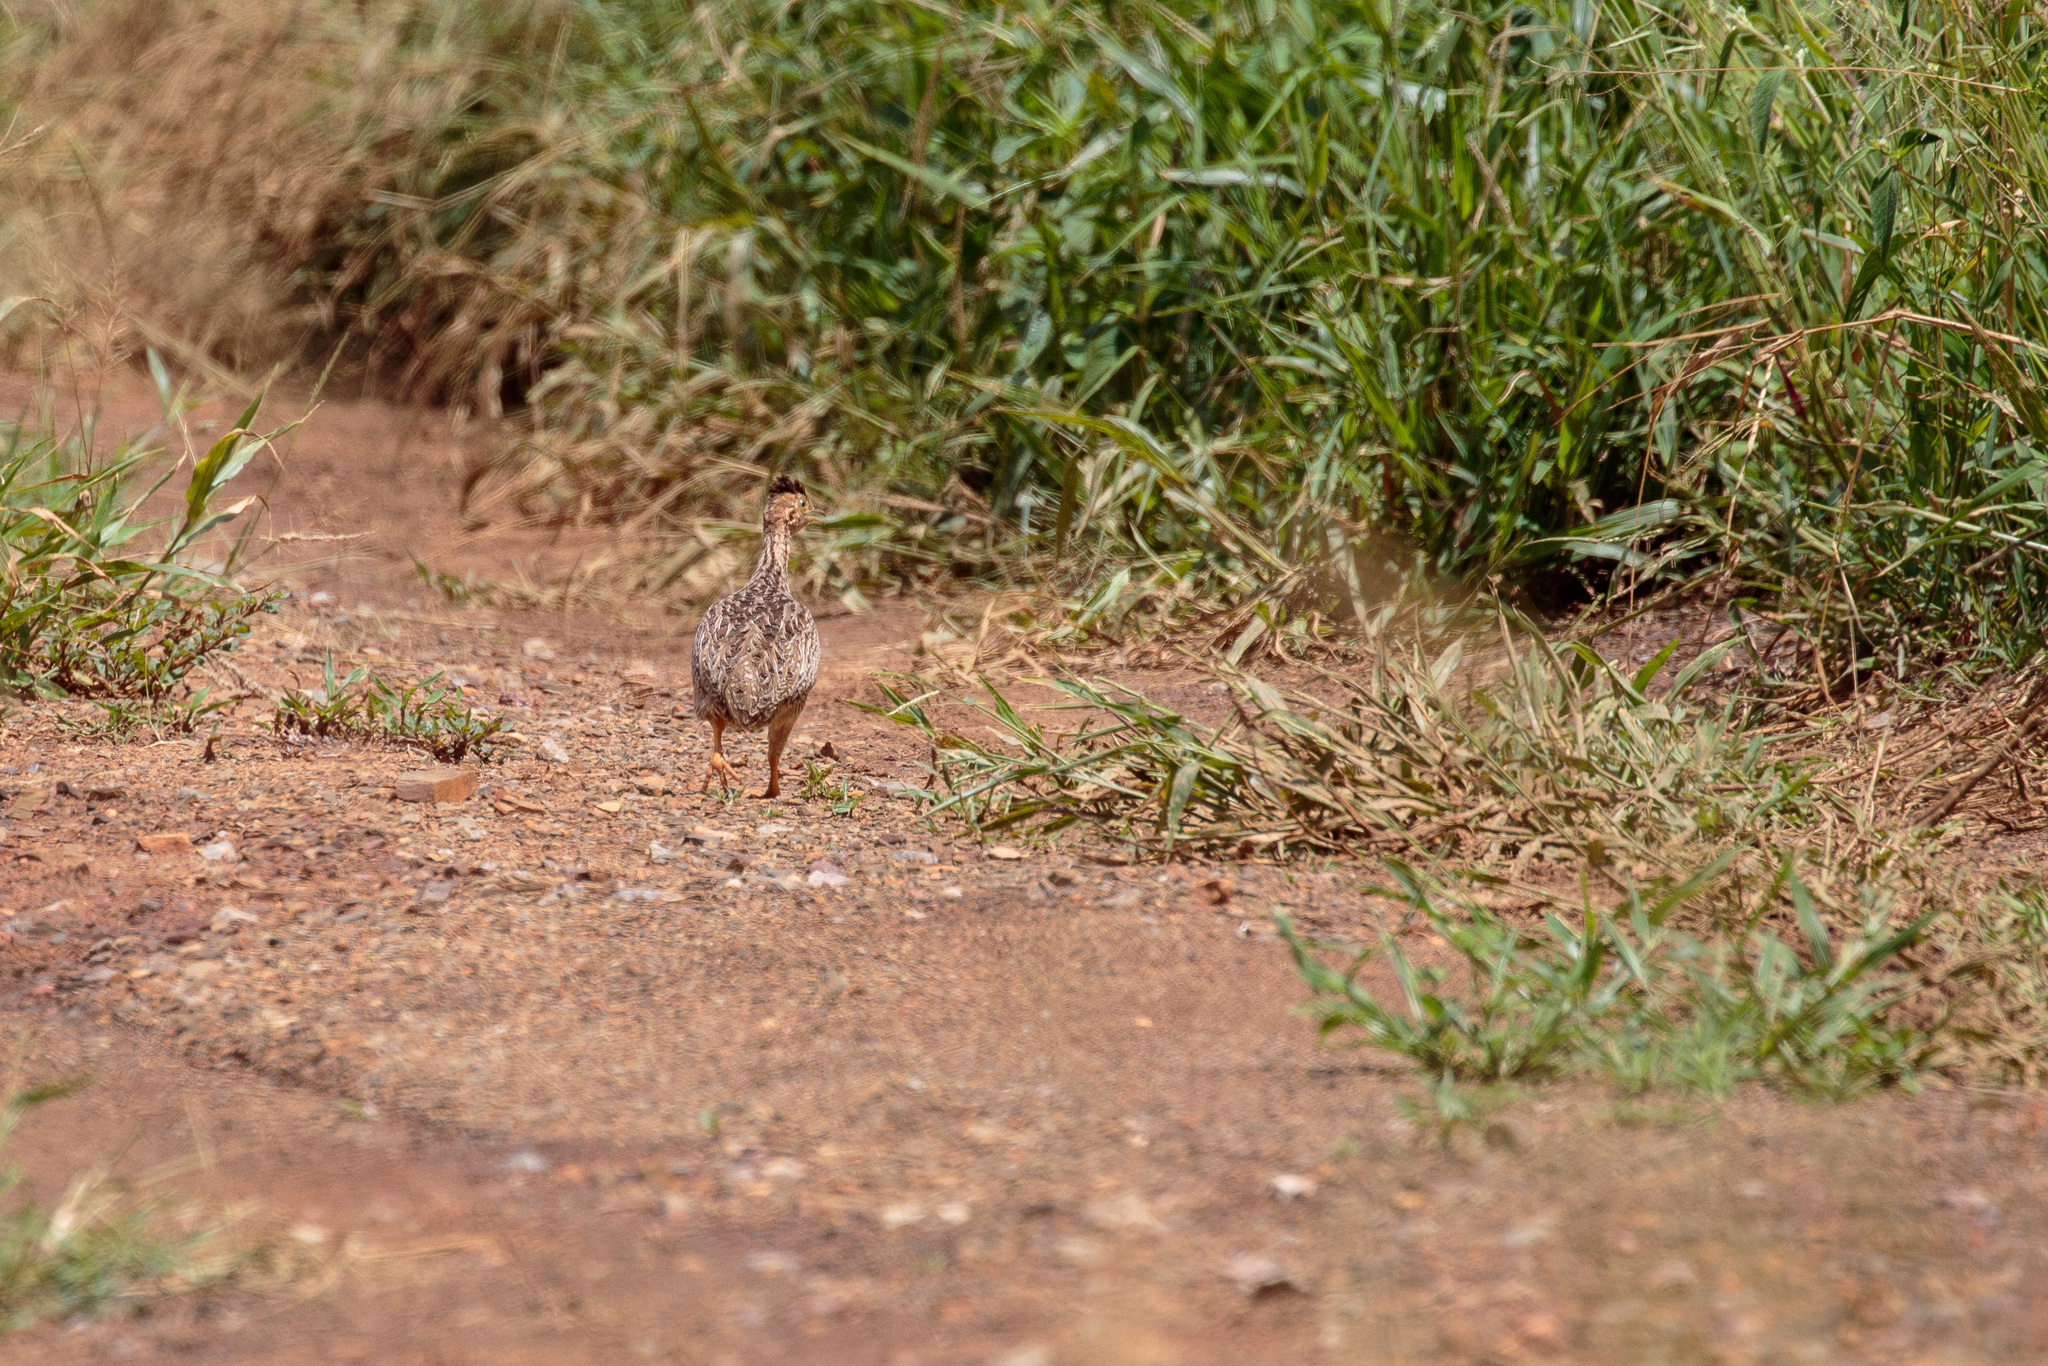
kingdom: Animalia
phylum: Chordata
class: Aves
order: Tinamiformes
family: Tinamidae
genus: Nothura
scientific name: Nothura boraquira
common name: White-bellied nothura
